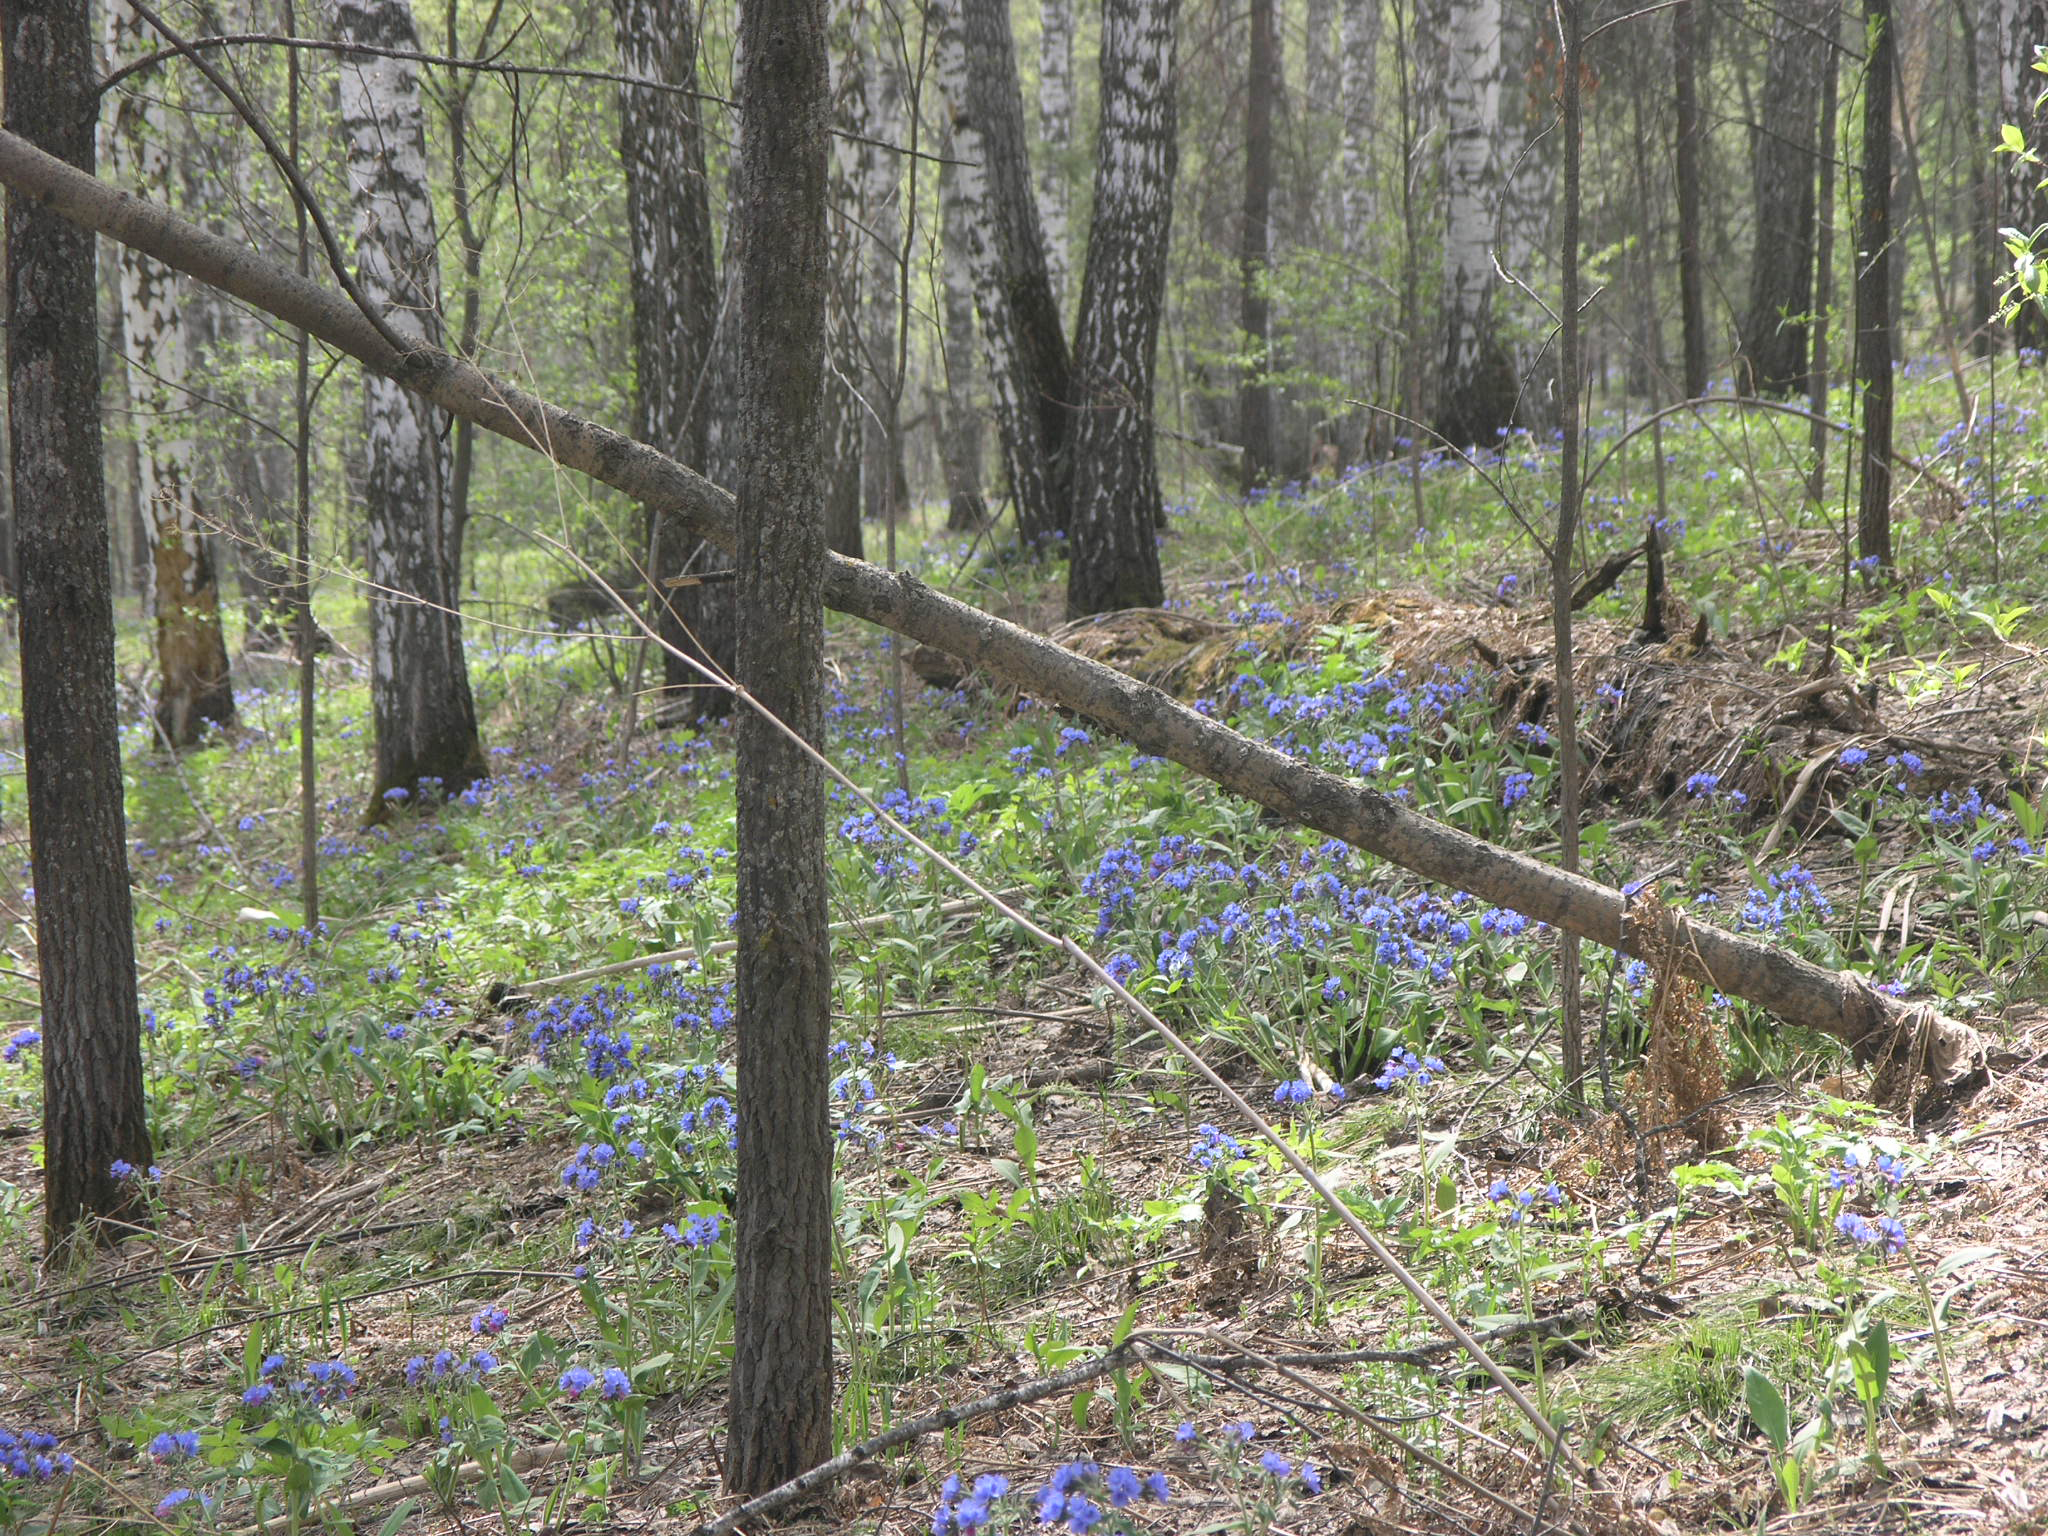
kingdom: Plantae
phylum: Tracheophyta
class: Magnoliopsida
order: Malpighiales
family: Salicaceae
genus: Populus
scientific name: Populus tremula
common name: European aspen
